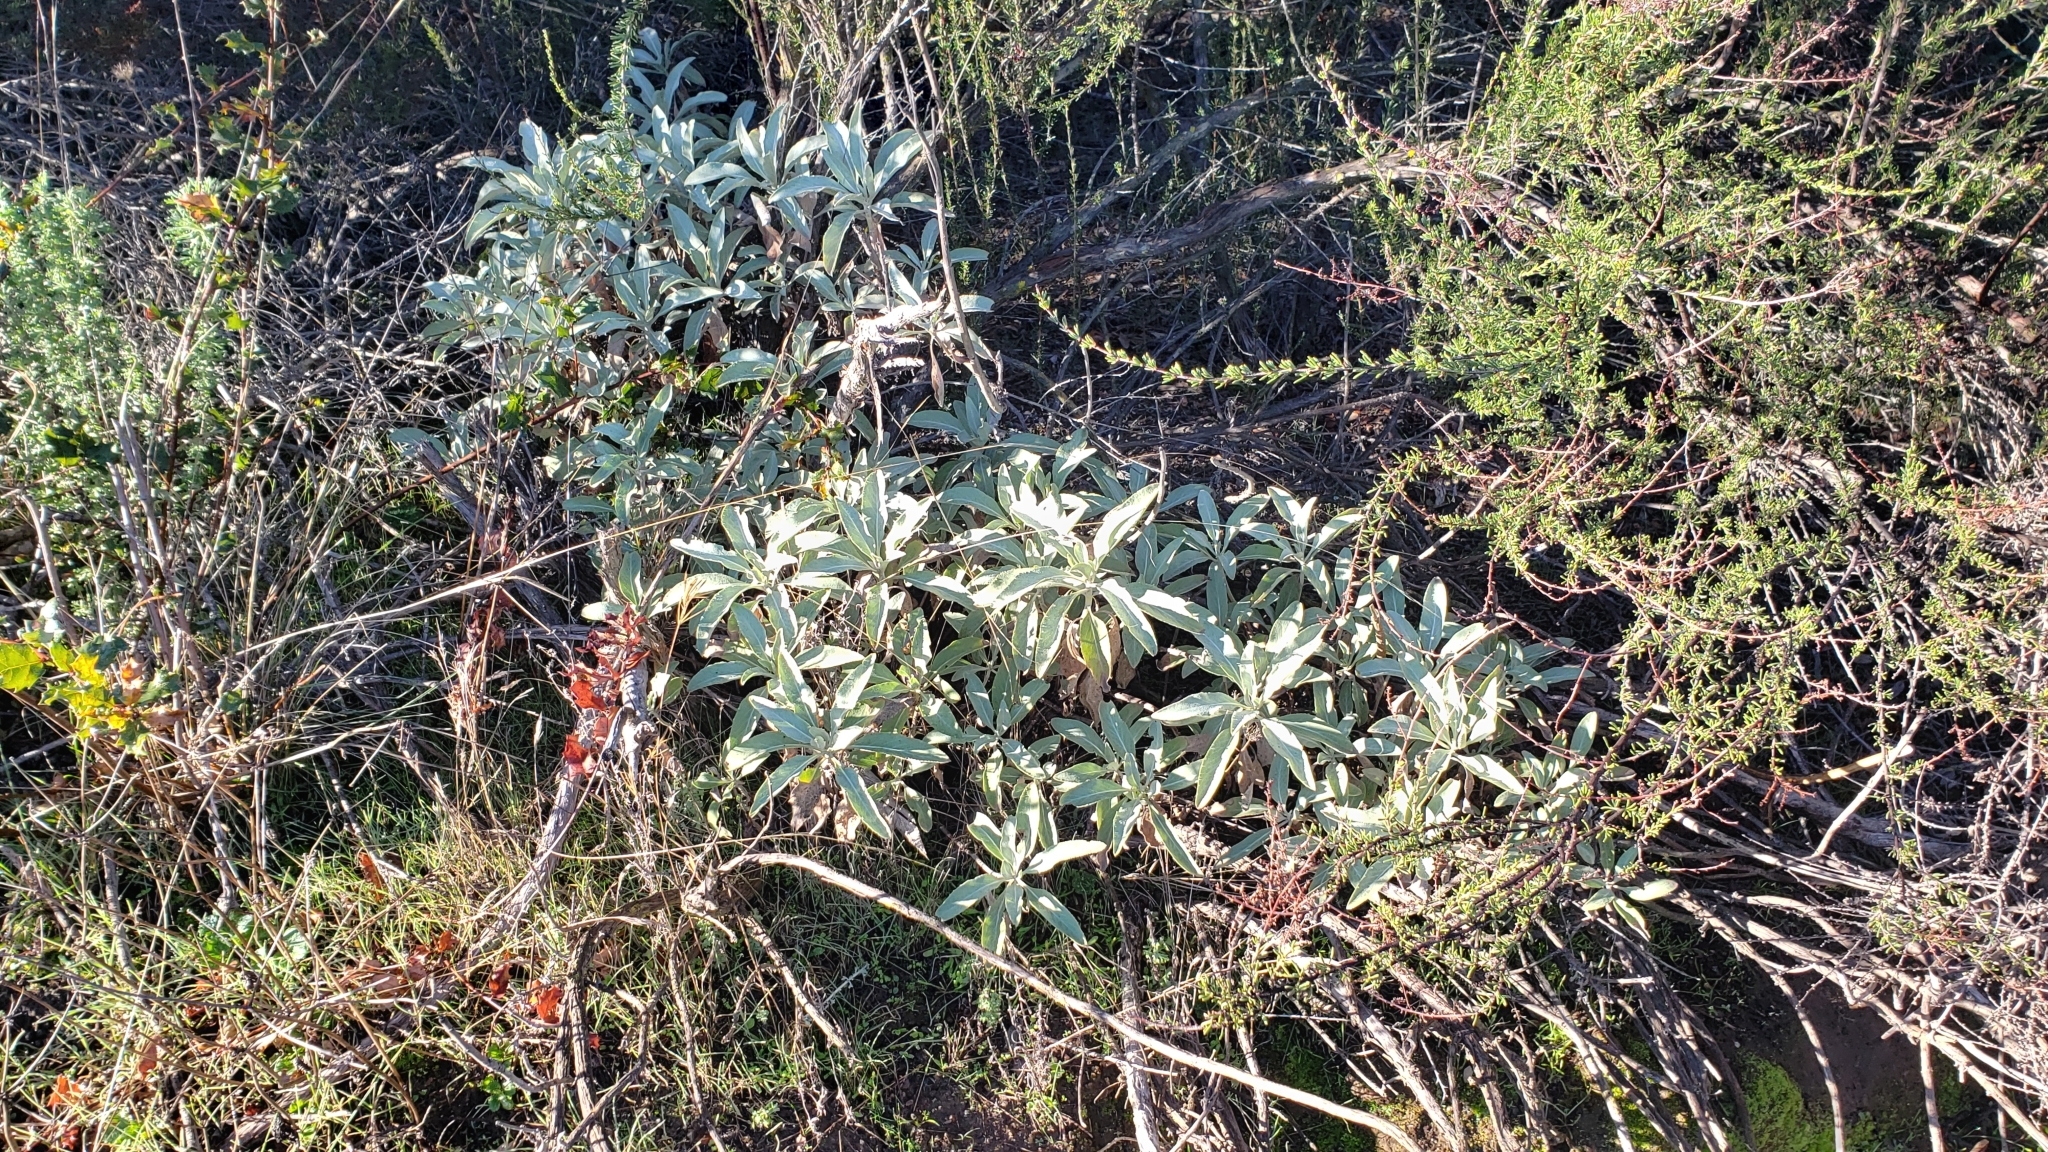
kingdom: Plantae
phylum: Tracheophyta
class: Magnoliopsida
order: Lamiales
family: Lamiaceae
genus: Salvia
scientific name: Salvia apiana
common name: White sage
